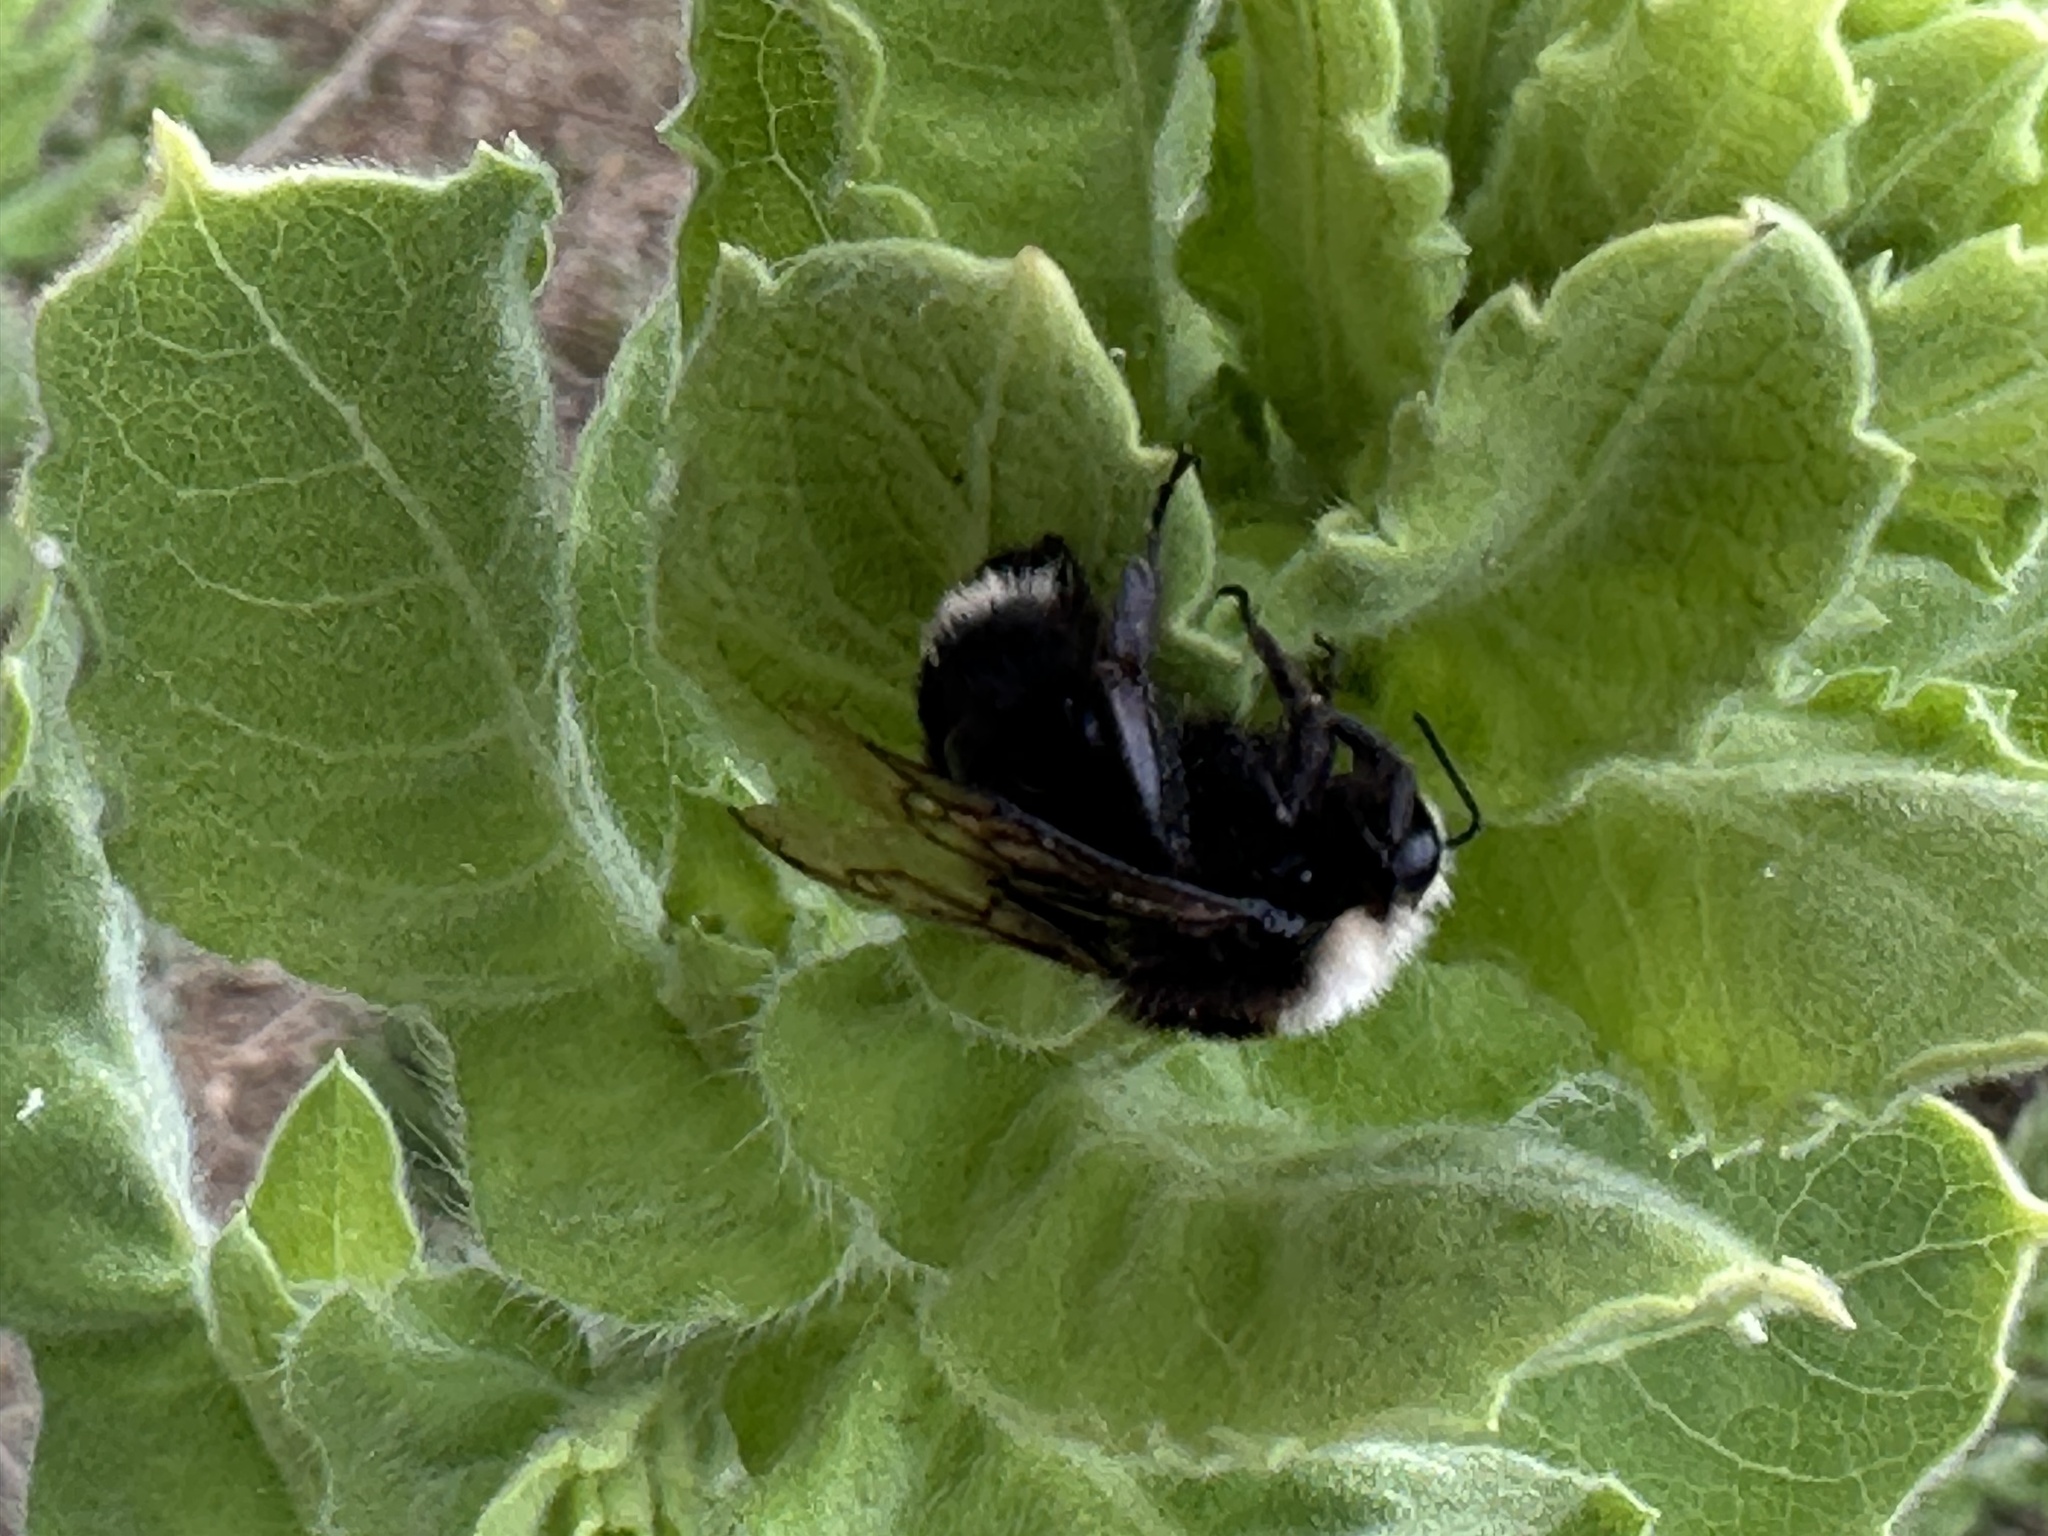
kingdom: Animalia
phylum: Arthropoda
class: Insecta
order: Hymenoptera
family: Apidae
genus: Bombus
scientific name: Bombus vosnesenskii
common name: Vosnesensky bumble bee
